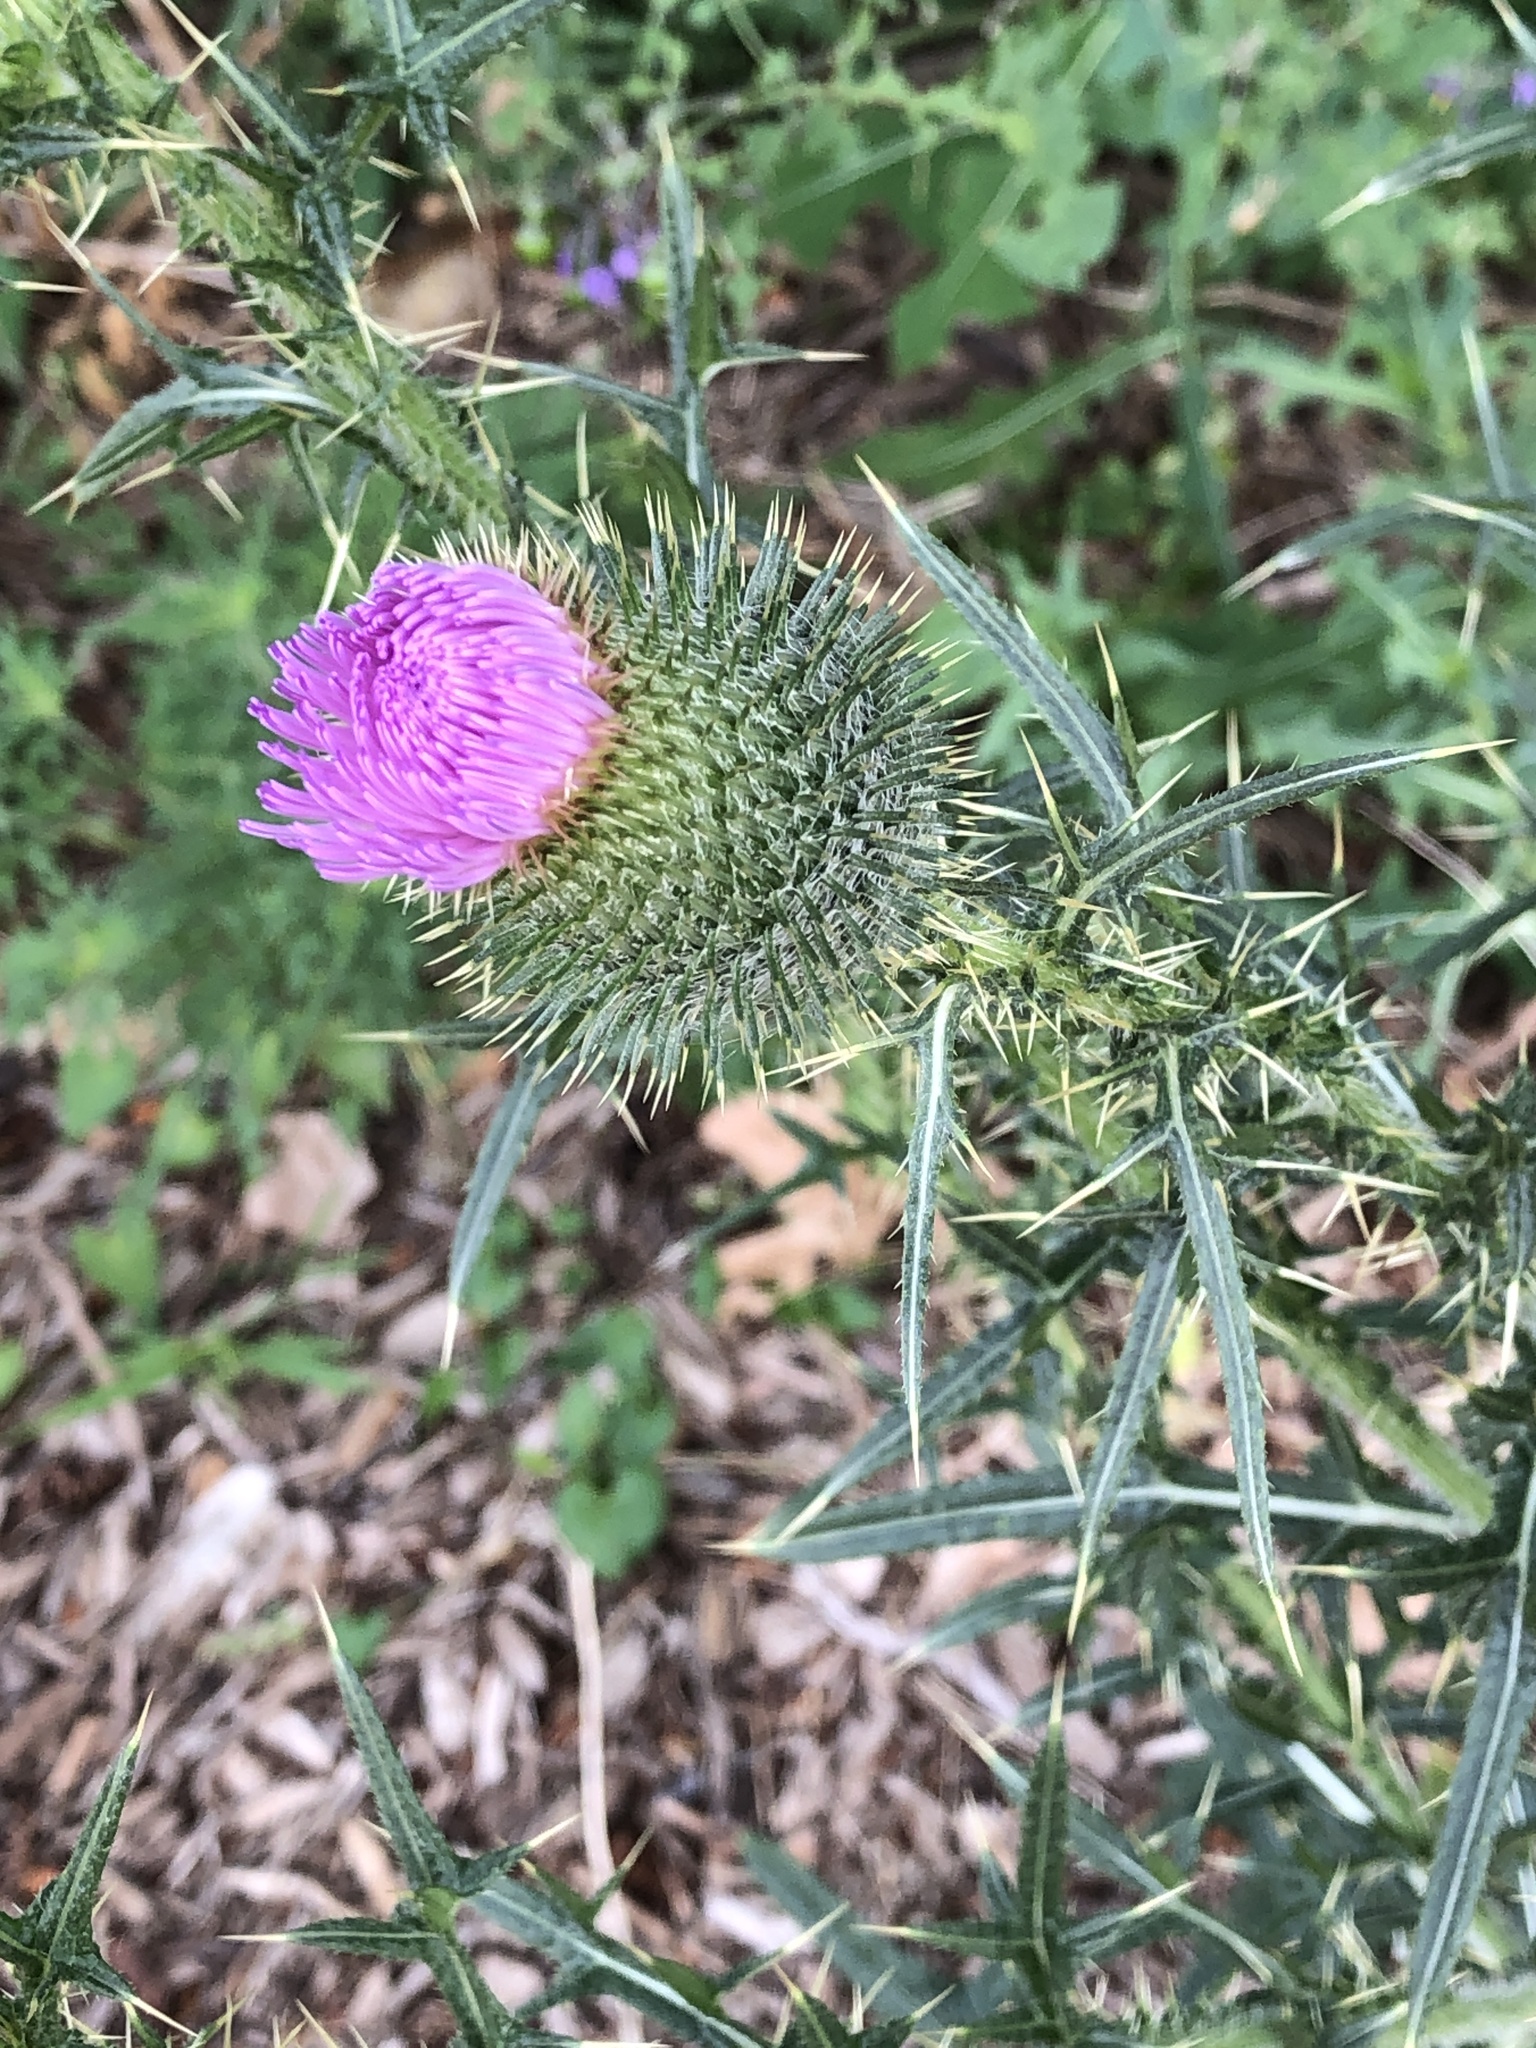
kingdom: Plantae
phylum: Tracheophyta
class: Magnoliopsida
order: Asterales
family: Asteraceae
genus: Cirsium
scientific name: Cirsium vulgare
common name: Bull thistle
